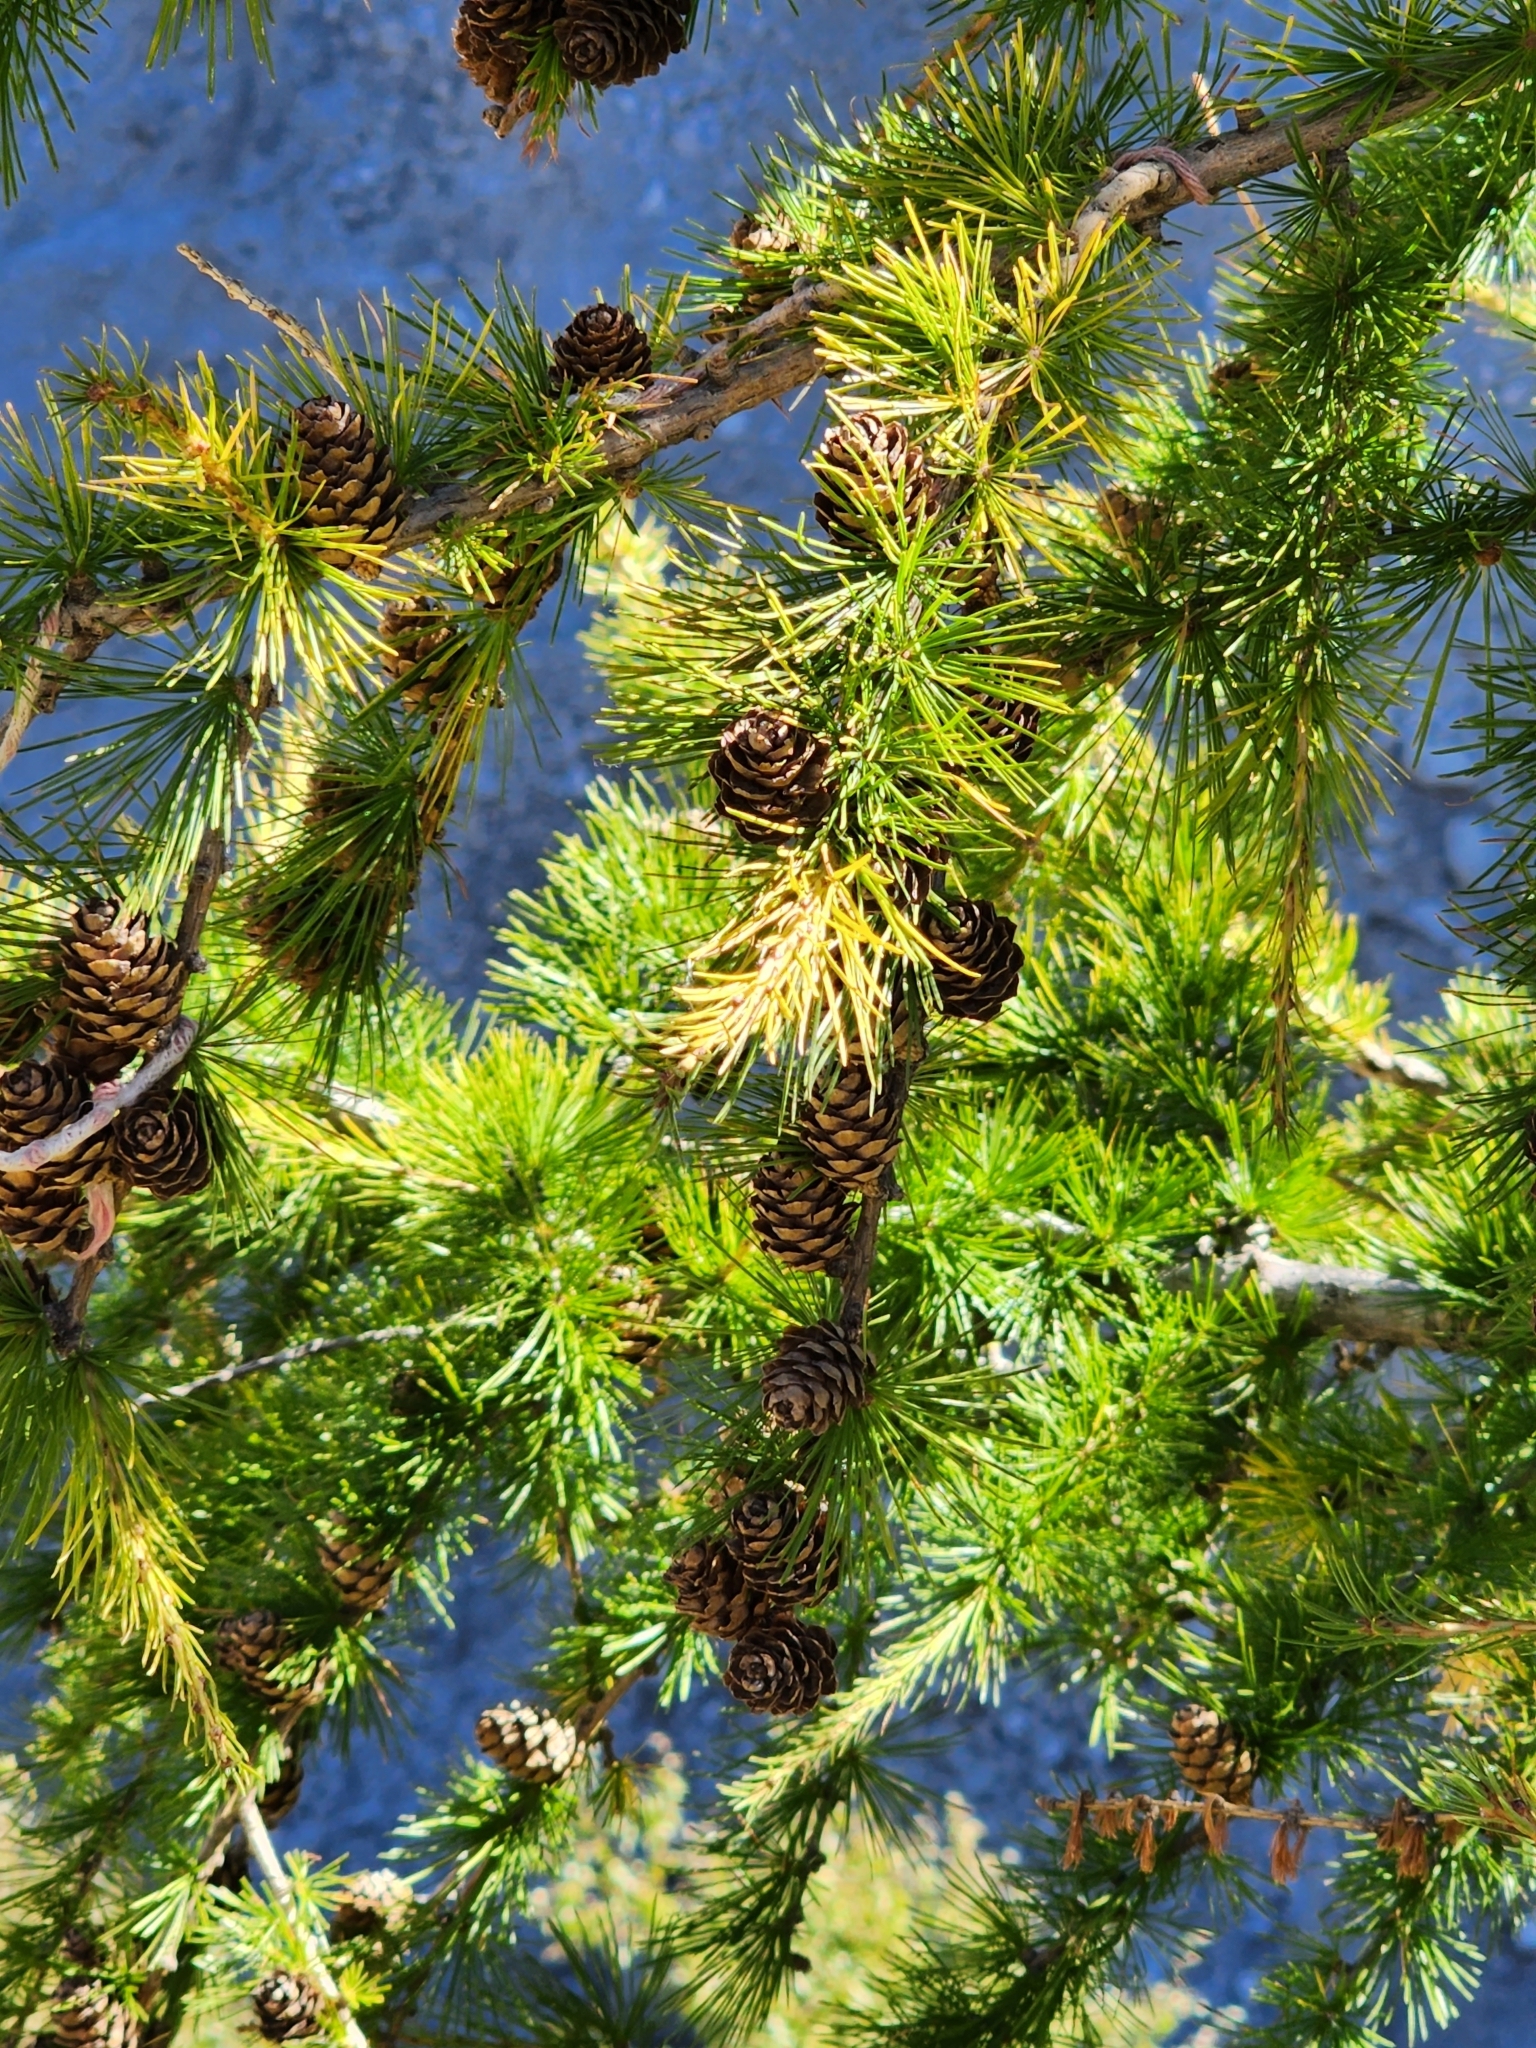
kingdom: Plantae
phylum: Tracheophyta
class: Pinopsida
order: Pinales
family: Pinaceae
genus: Larix
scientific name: Larix decidua
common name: European larch
